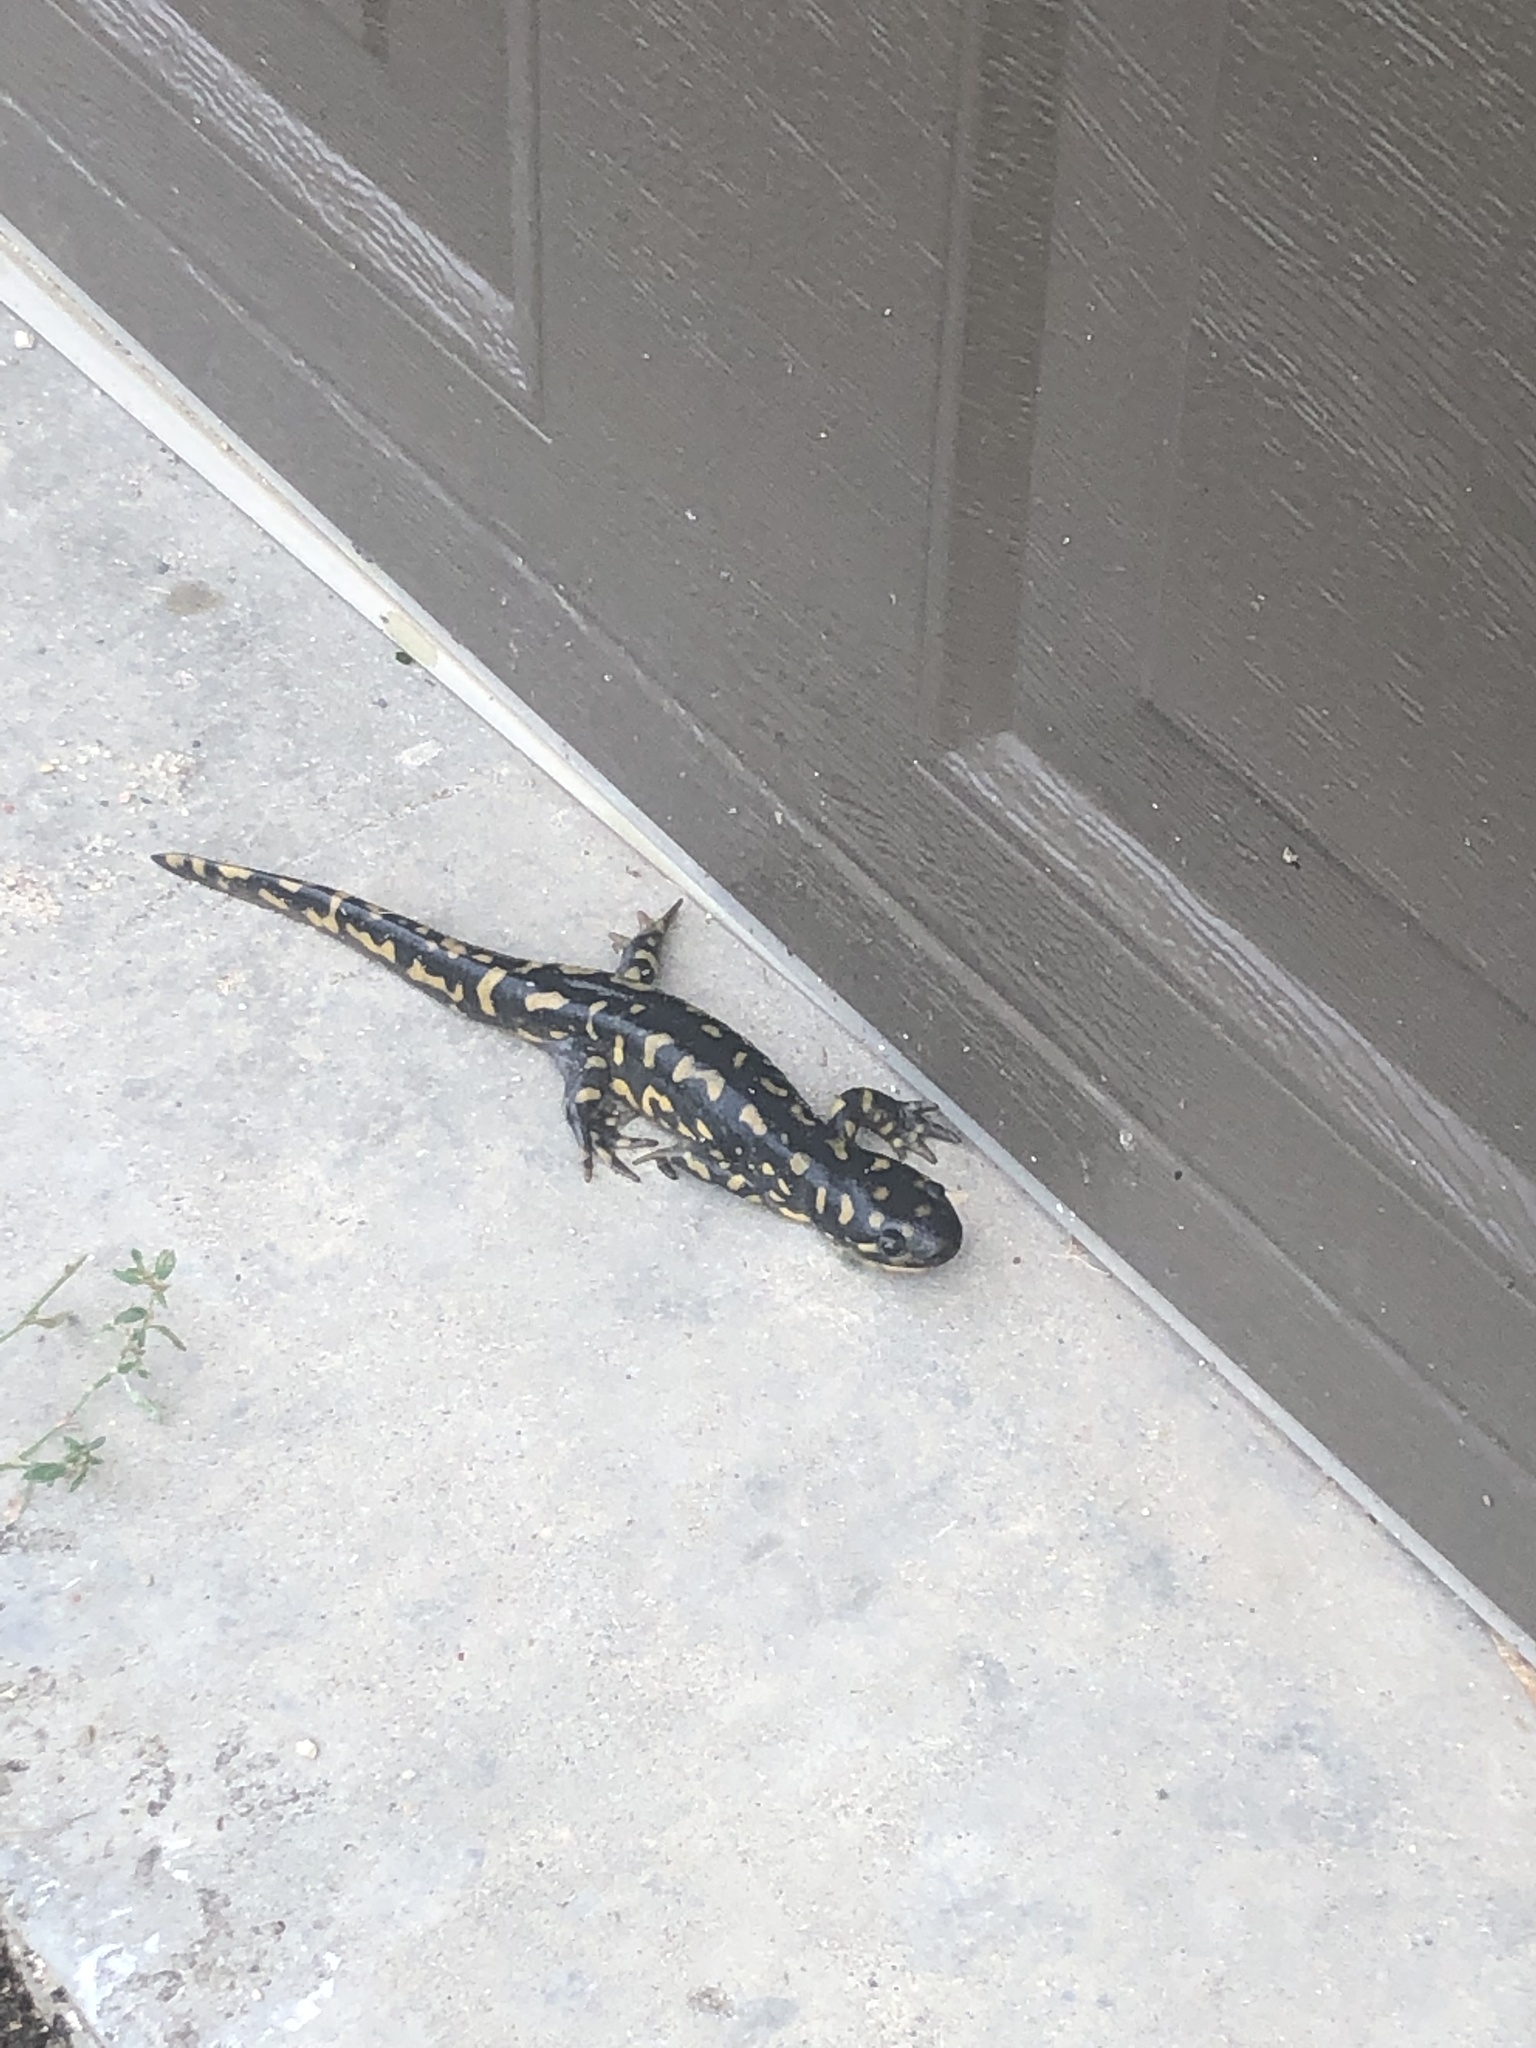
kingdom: Animalia
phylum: Chordata
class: Amphibia
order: Caudata
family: Ambystomatidae
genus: Ambystoma
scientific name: Ambystoma tigrinum
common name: Tiger salamander
